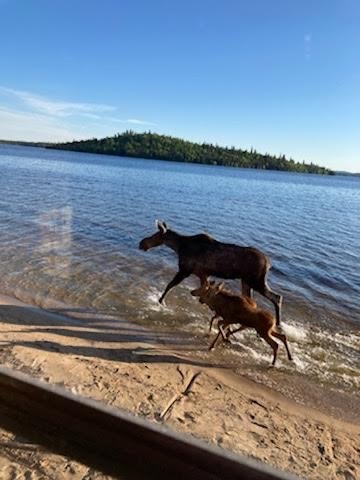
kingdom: Animalia
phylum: Chordata
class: Mammalia
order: Artiodactyla
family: Cervidae
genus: Alces
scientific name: Alces alces
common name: Moose
